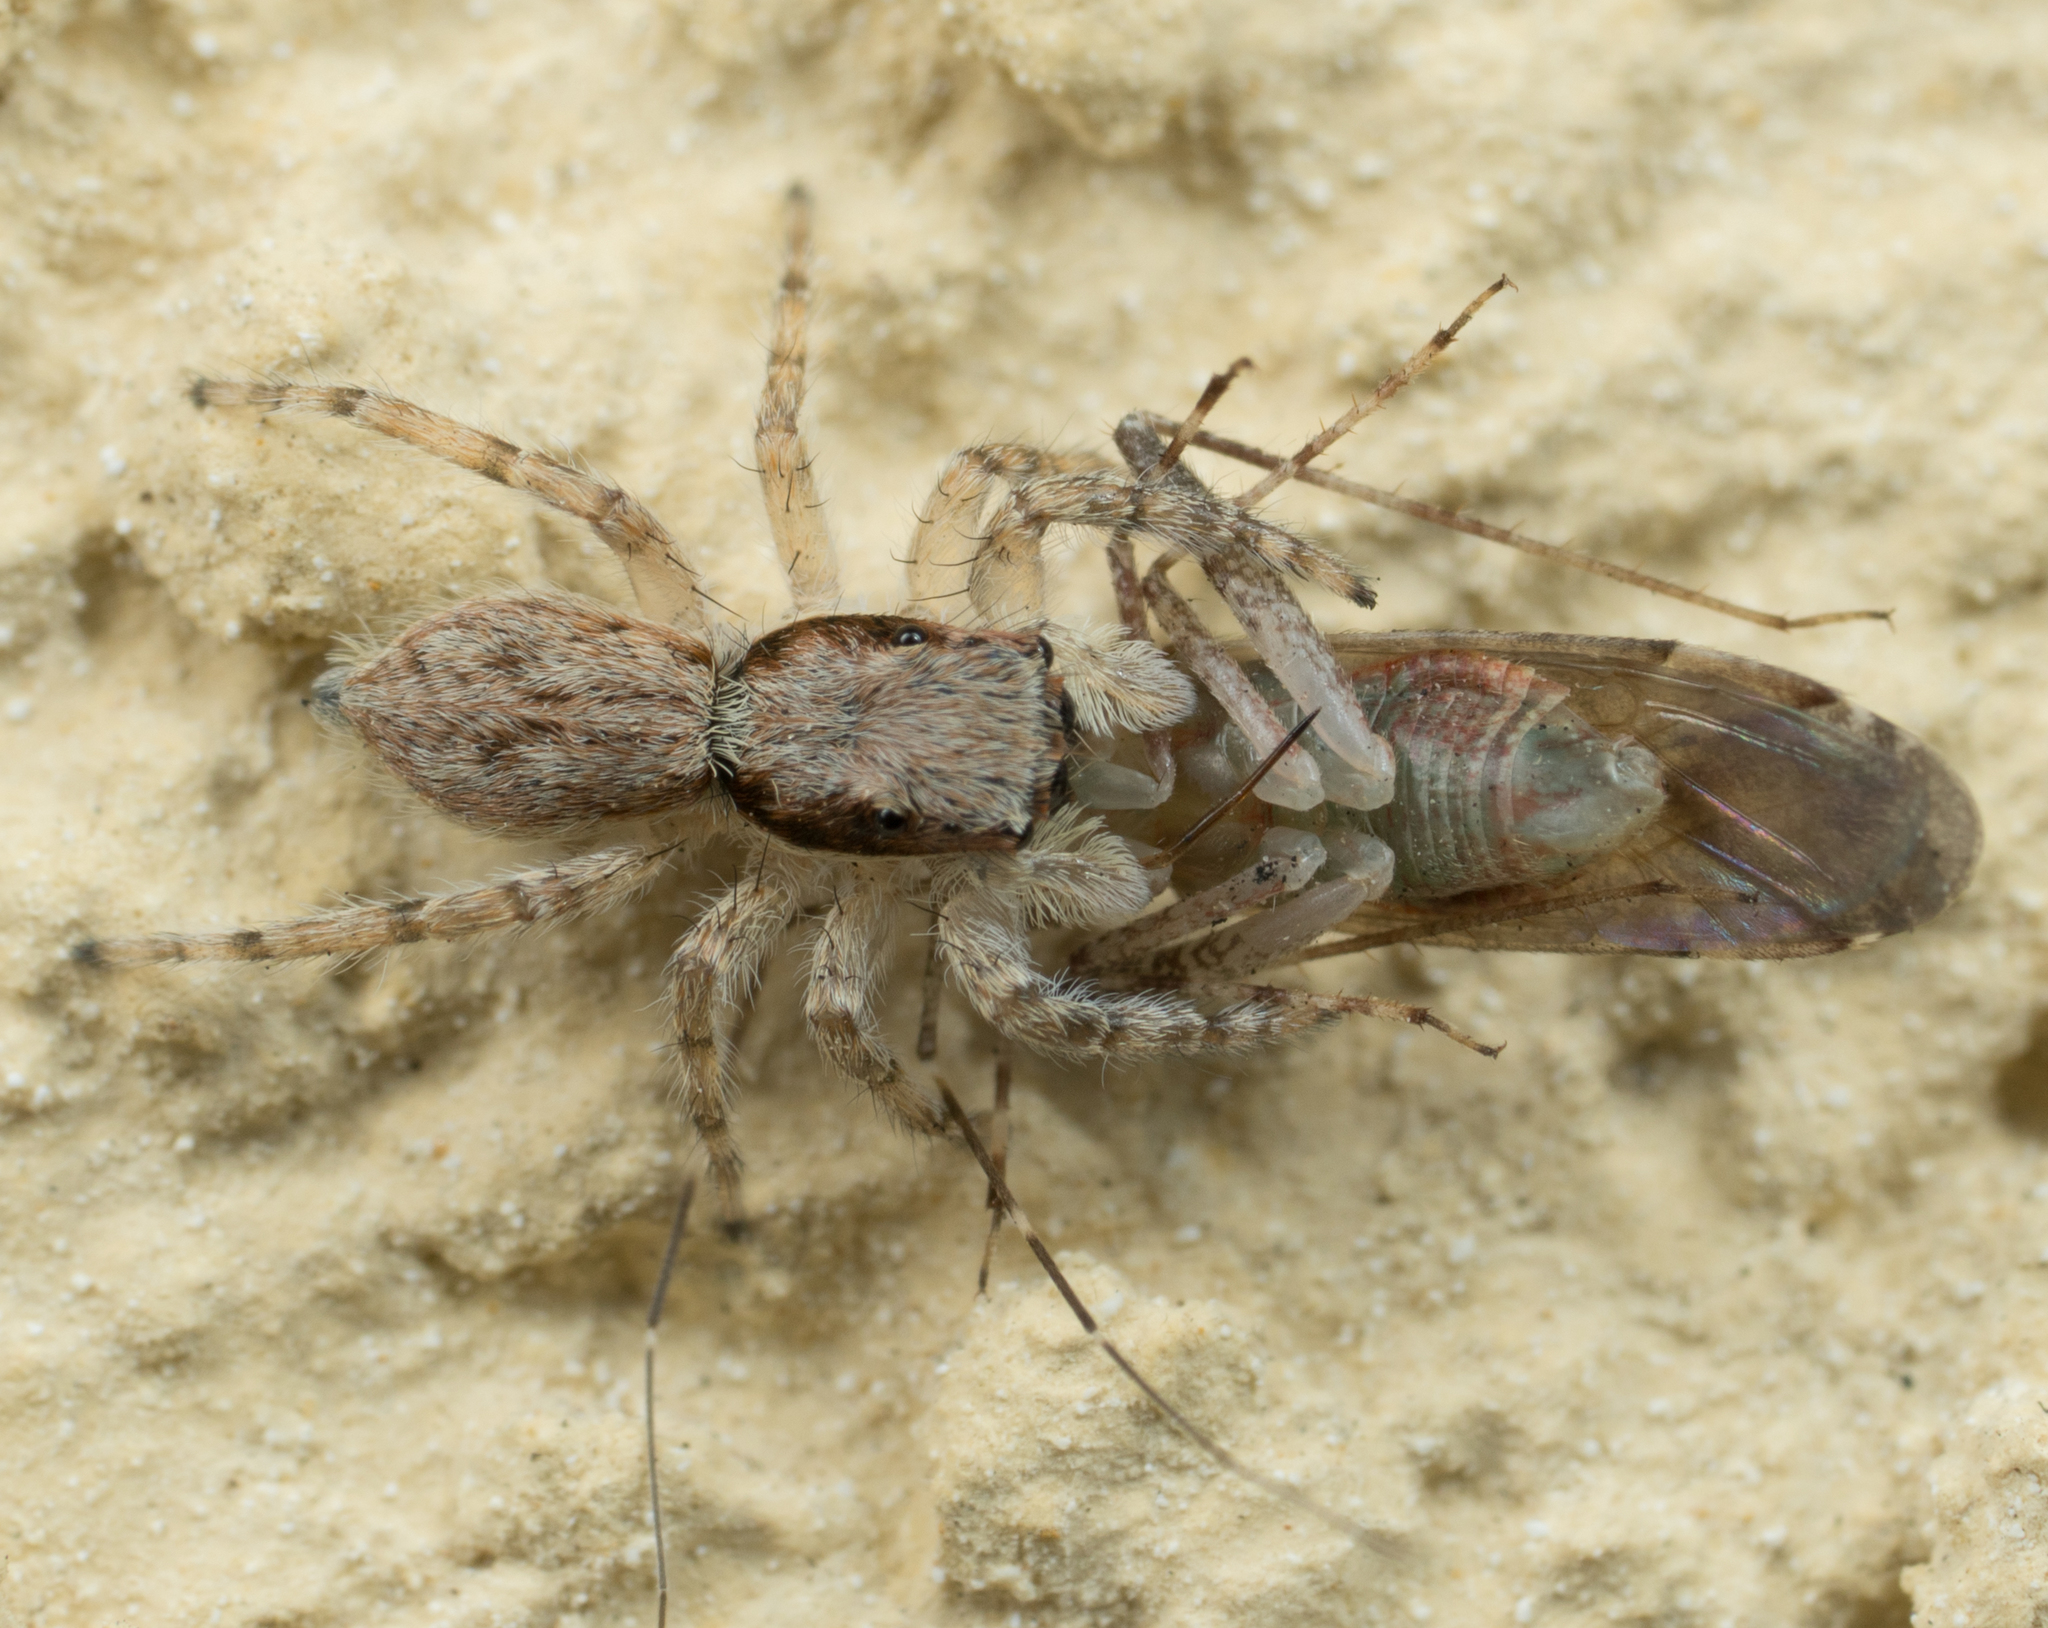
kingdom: Animalia
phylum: Arthropoda
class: Arachnida
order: Araneae
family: Salticidae
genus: Menemerus
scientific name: Menemerus bivittatus
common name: Gray wall jumper
